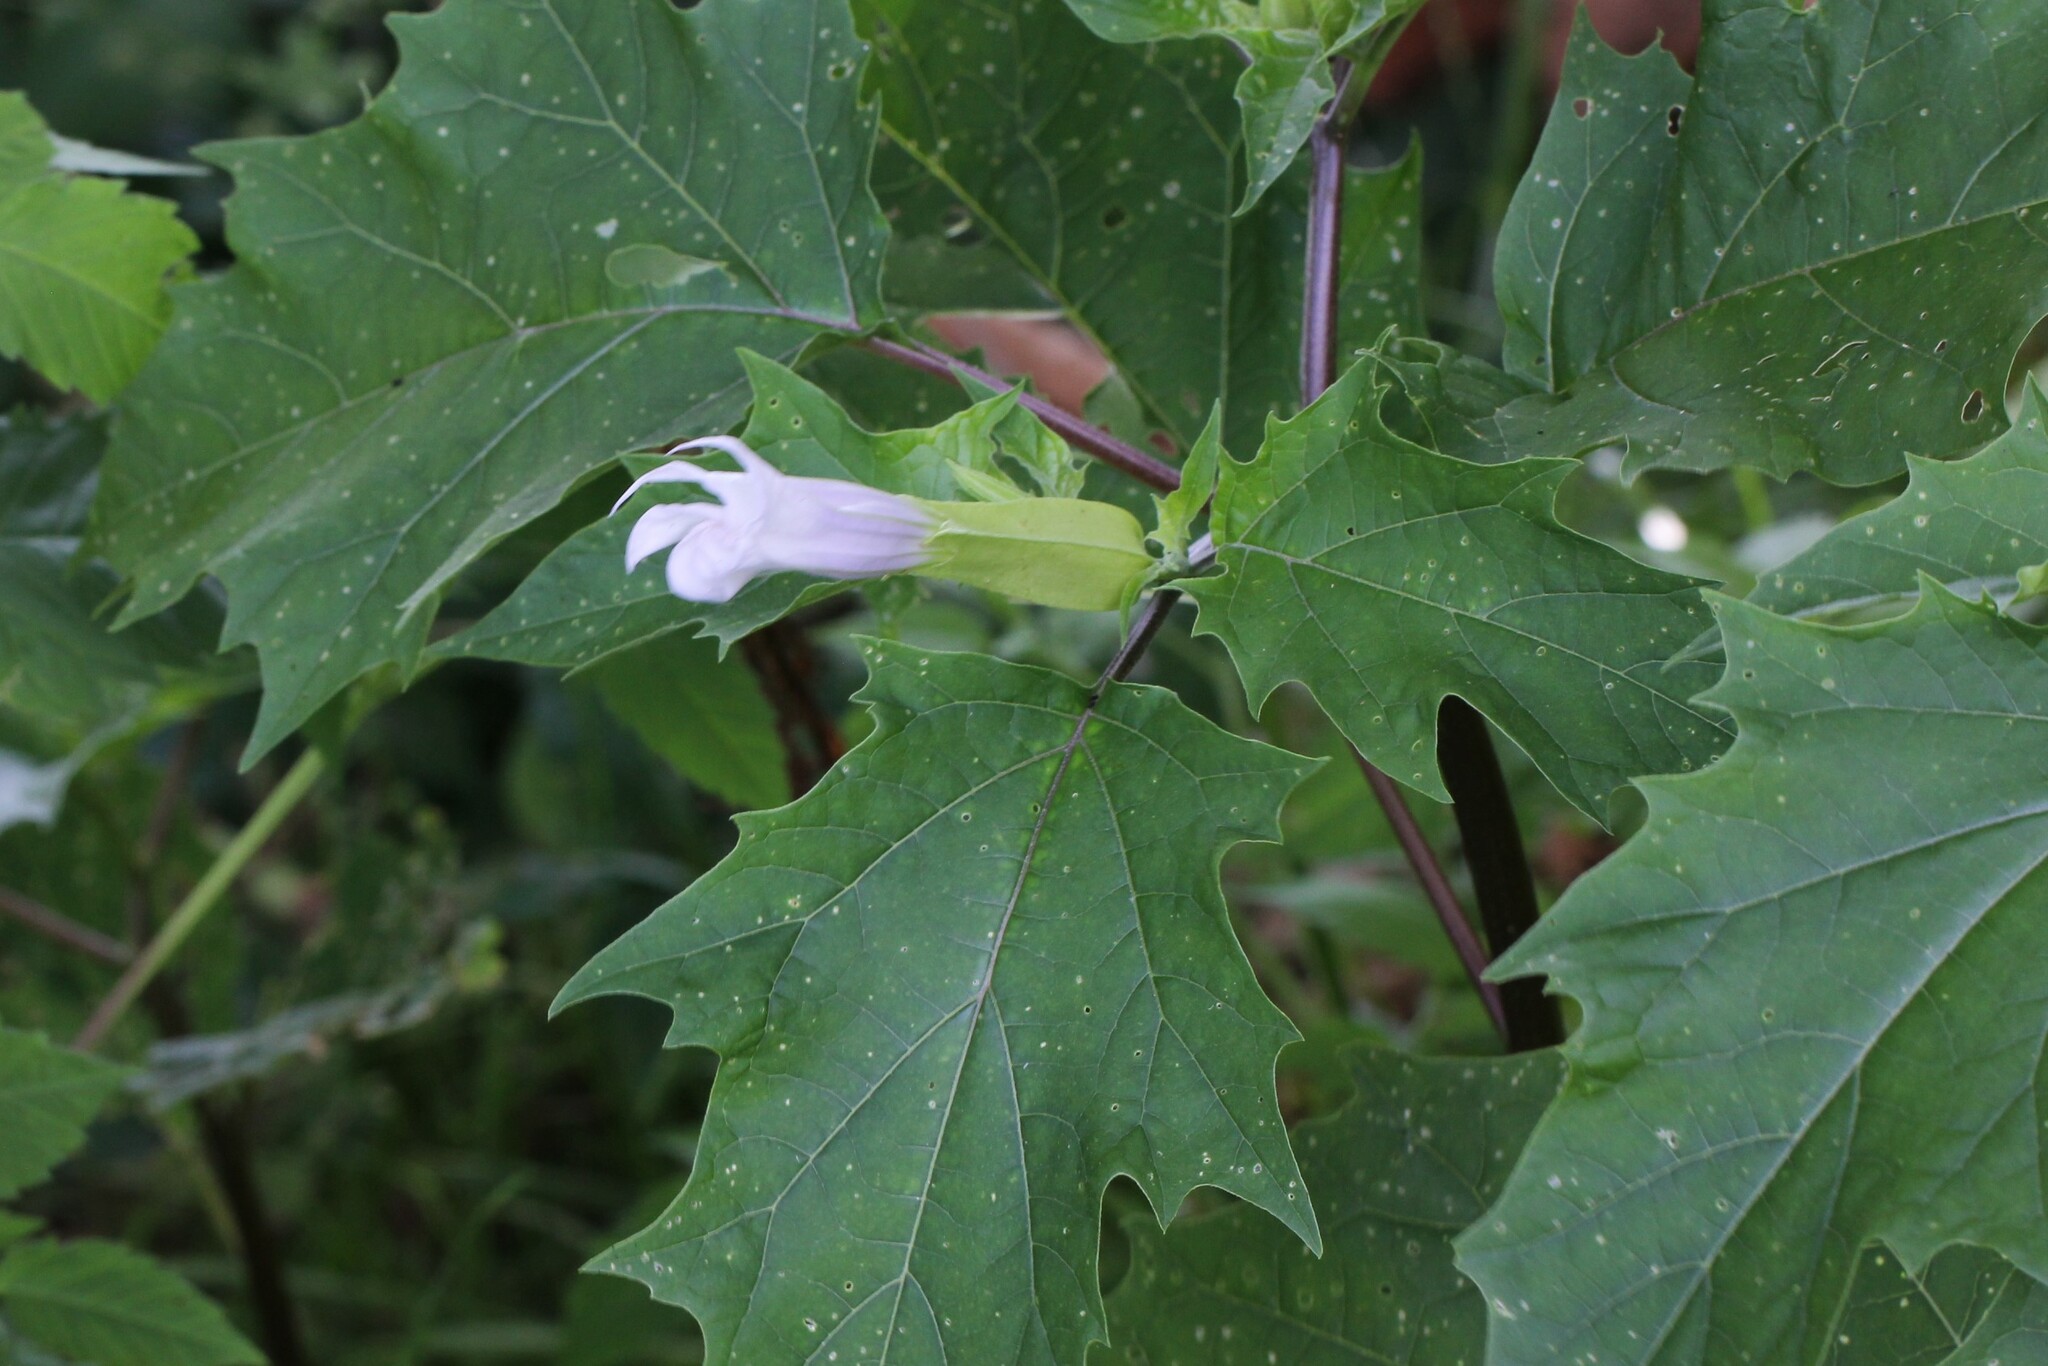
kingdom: Plantae
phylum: Tracheophyta
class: Magnoliopsida
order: Solanales
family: Solanaceae
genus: Datura
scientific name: Datura stramonium
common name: Thorn-apple
